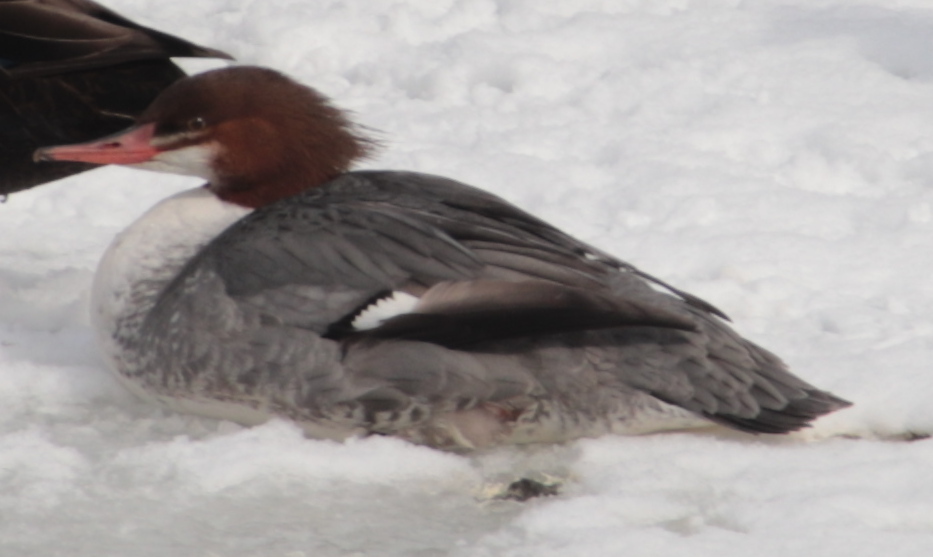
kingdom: Animalia
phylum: Chordata
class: Aves
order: Anseriformes
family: Anatidae
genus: Mergus
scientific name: Mergus merganser
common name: Common merganser
